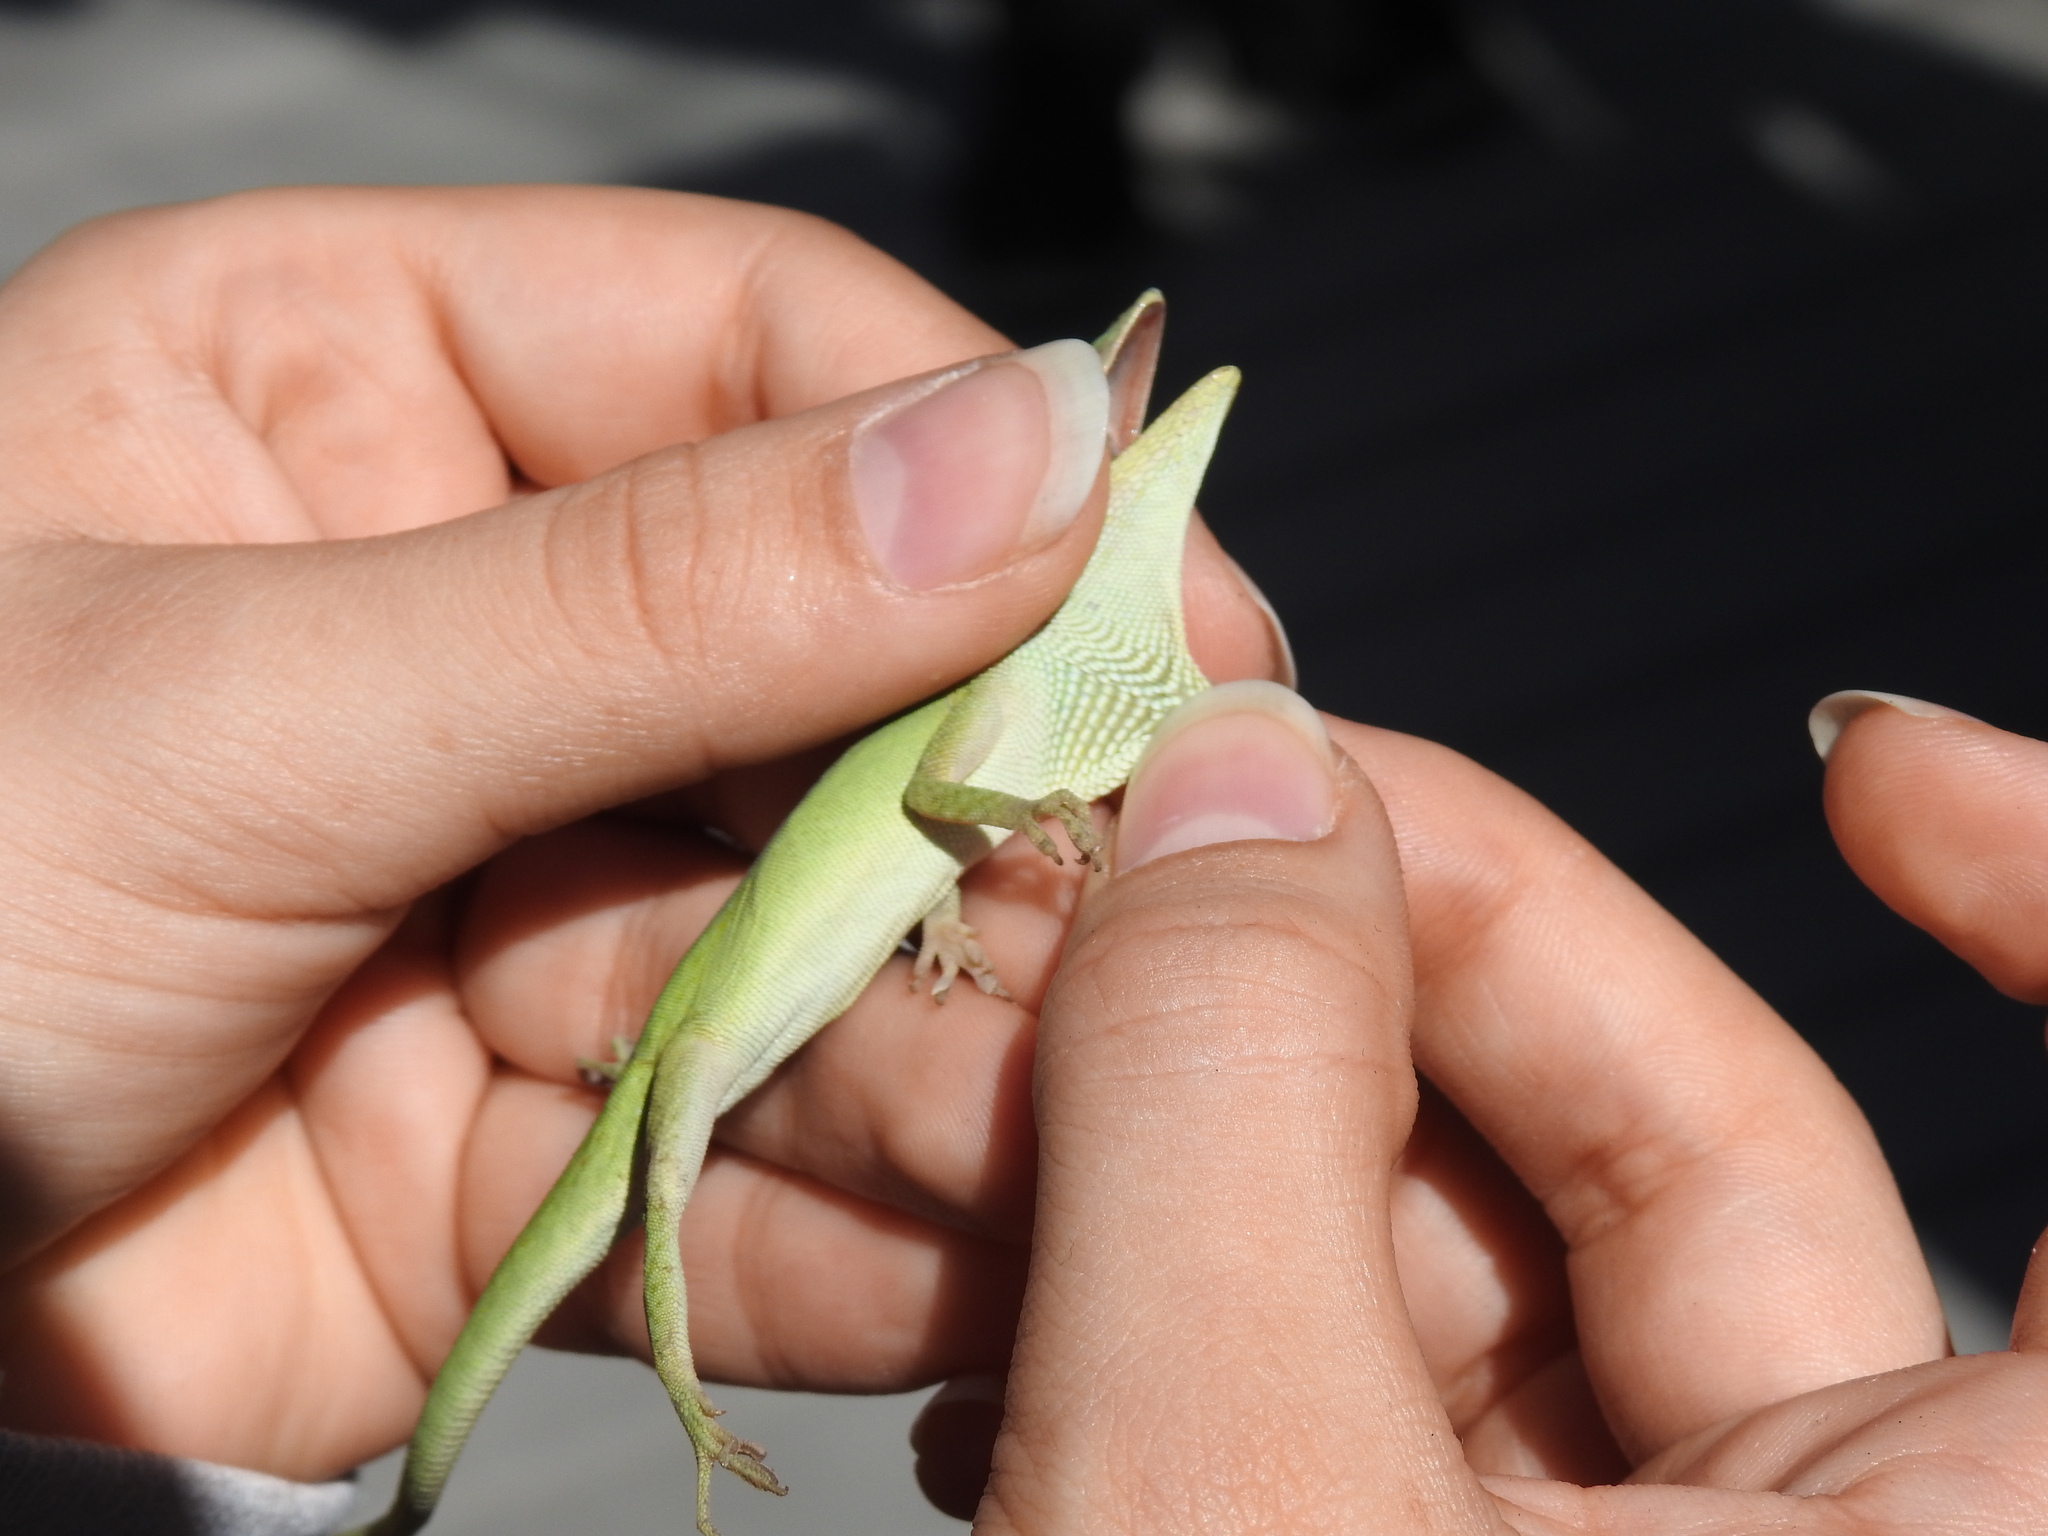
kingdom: Animalia
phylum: Chordata
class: Squamata
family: Dactyloidae
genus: Anolis
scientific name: Anolis carolinensis
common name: Green anole
